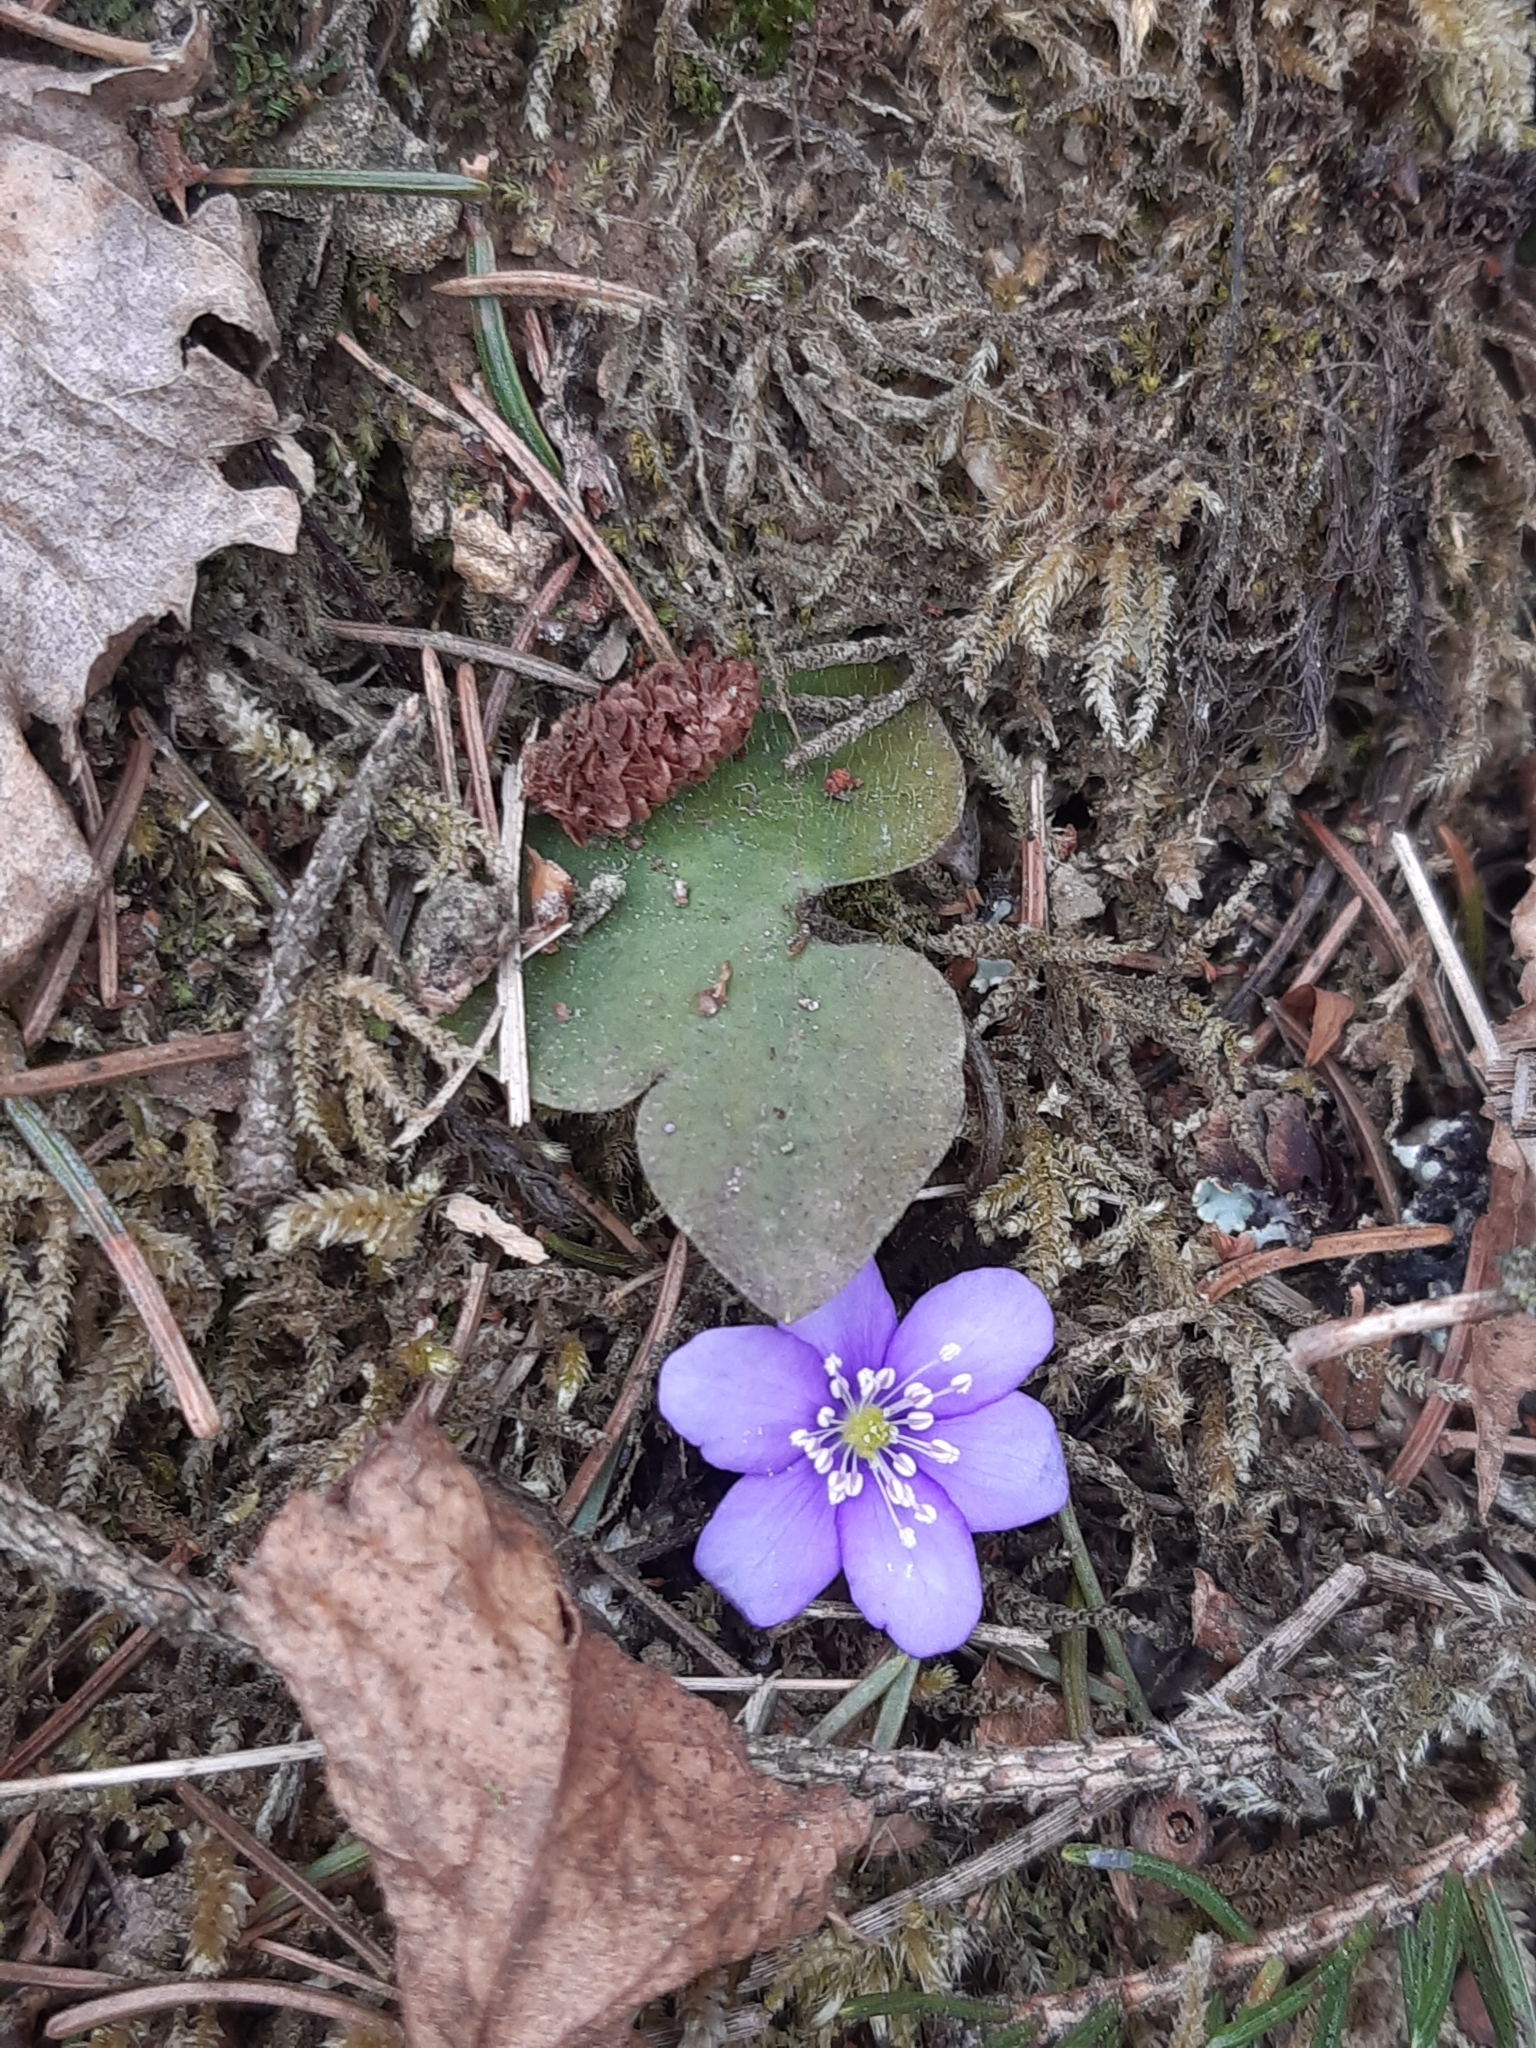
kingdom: Plantae
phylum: Tracheophyta
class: Magnoliopsida
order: Ranunculales
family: Ranunculaceae
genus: Hepatica
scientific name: Hepatica nobilis
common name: Liverleaf
